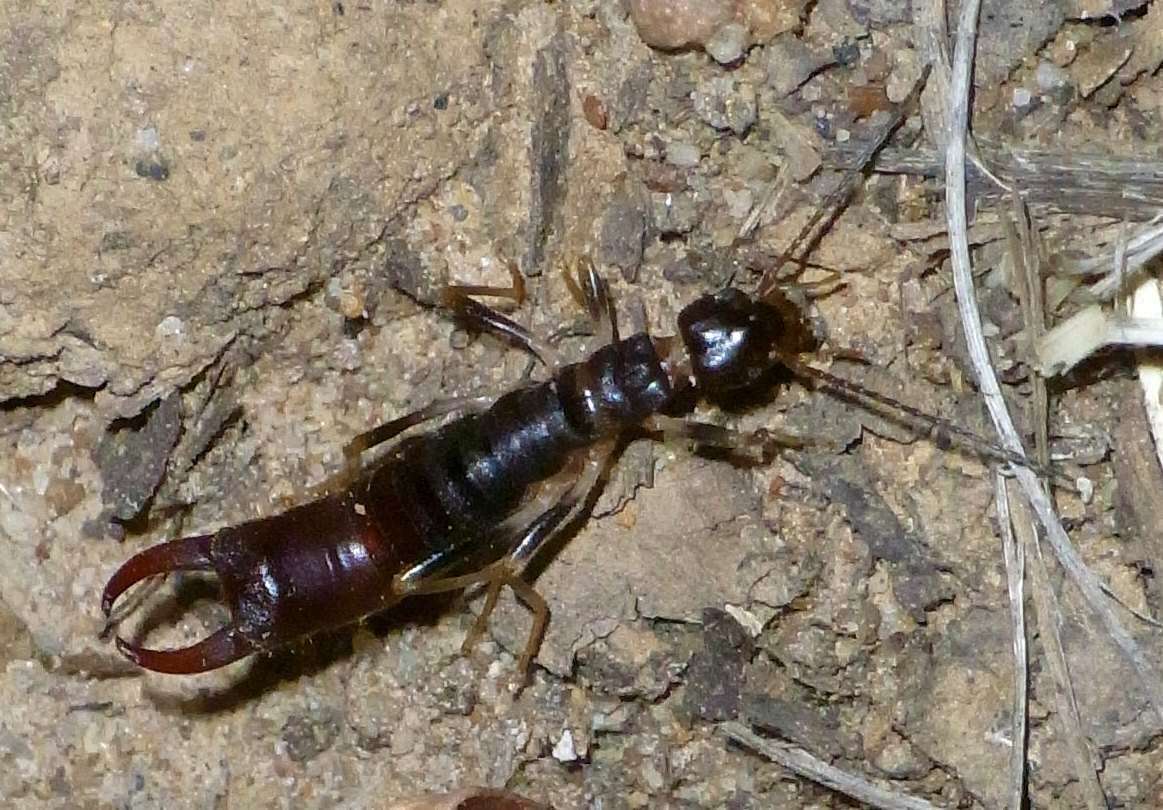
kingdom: Animalia
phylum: Arthropoda
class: Insecta
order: Dermaptera
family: Pygidicranidae
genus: Brindlensia
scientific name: Brindlensia jeekeli
